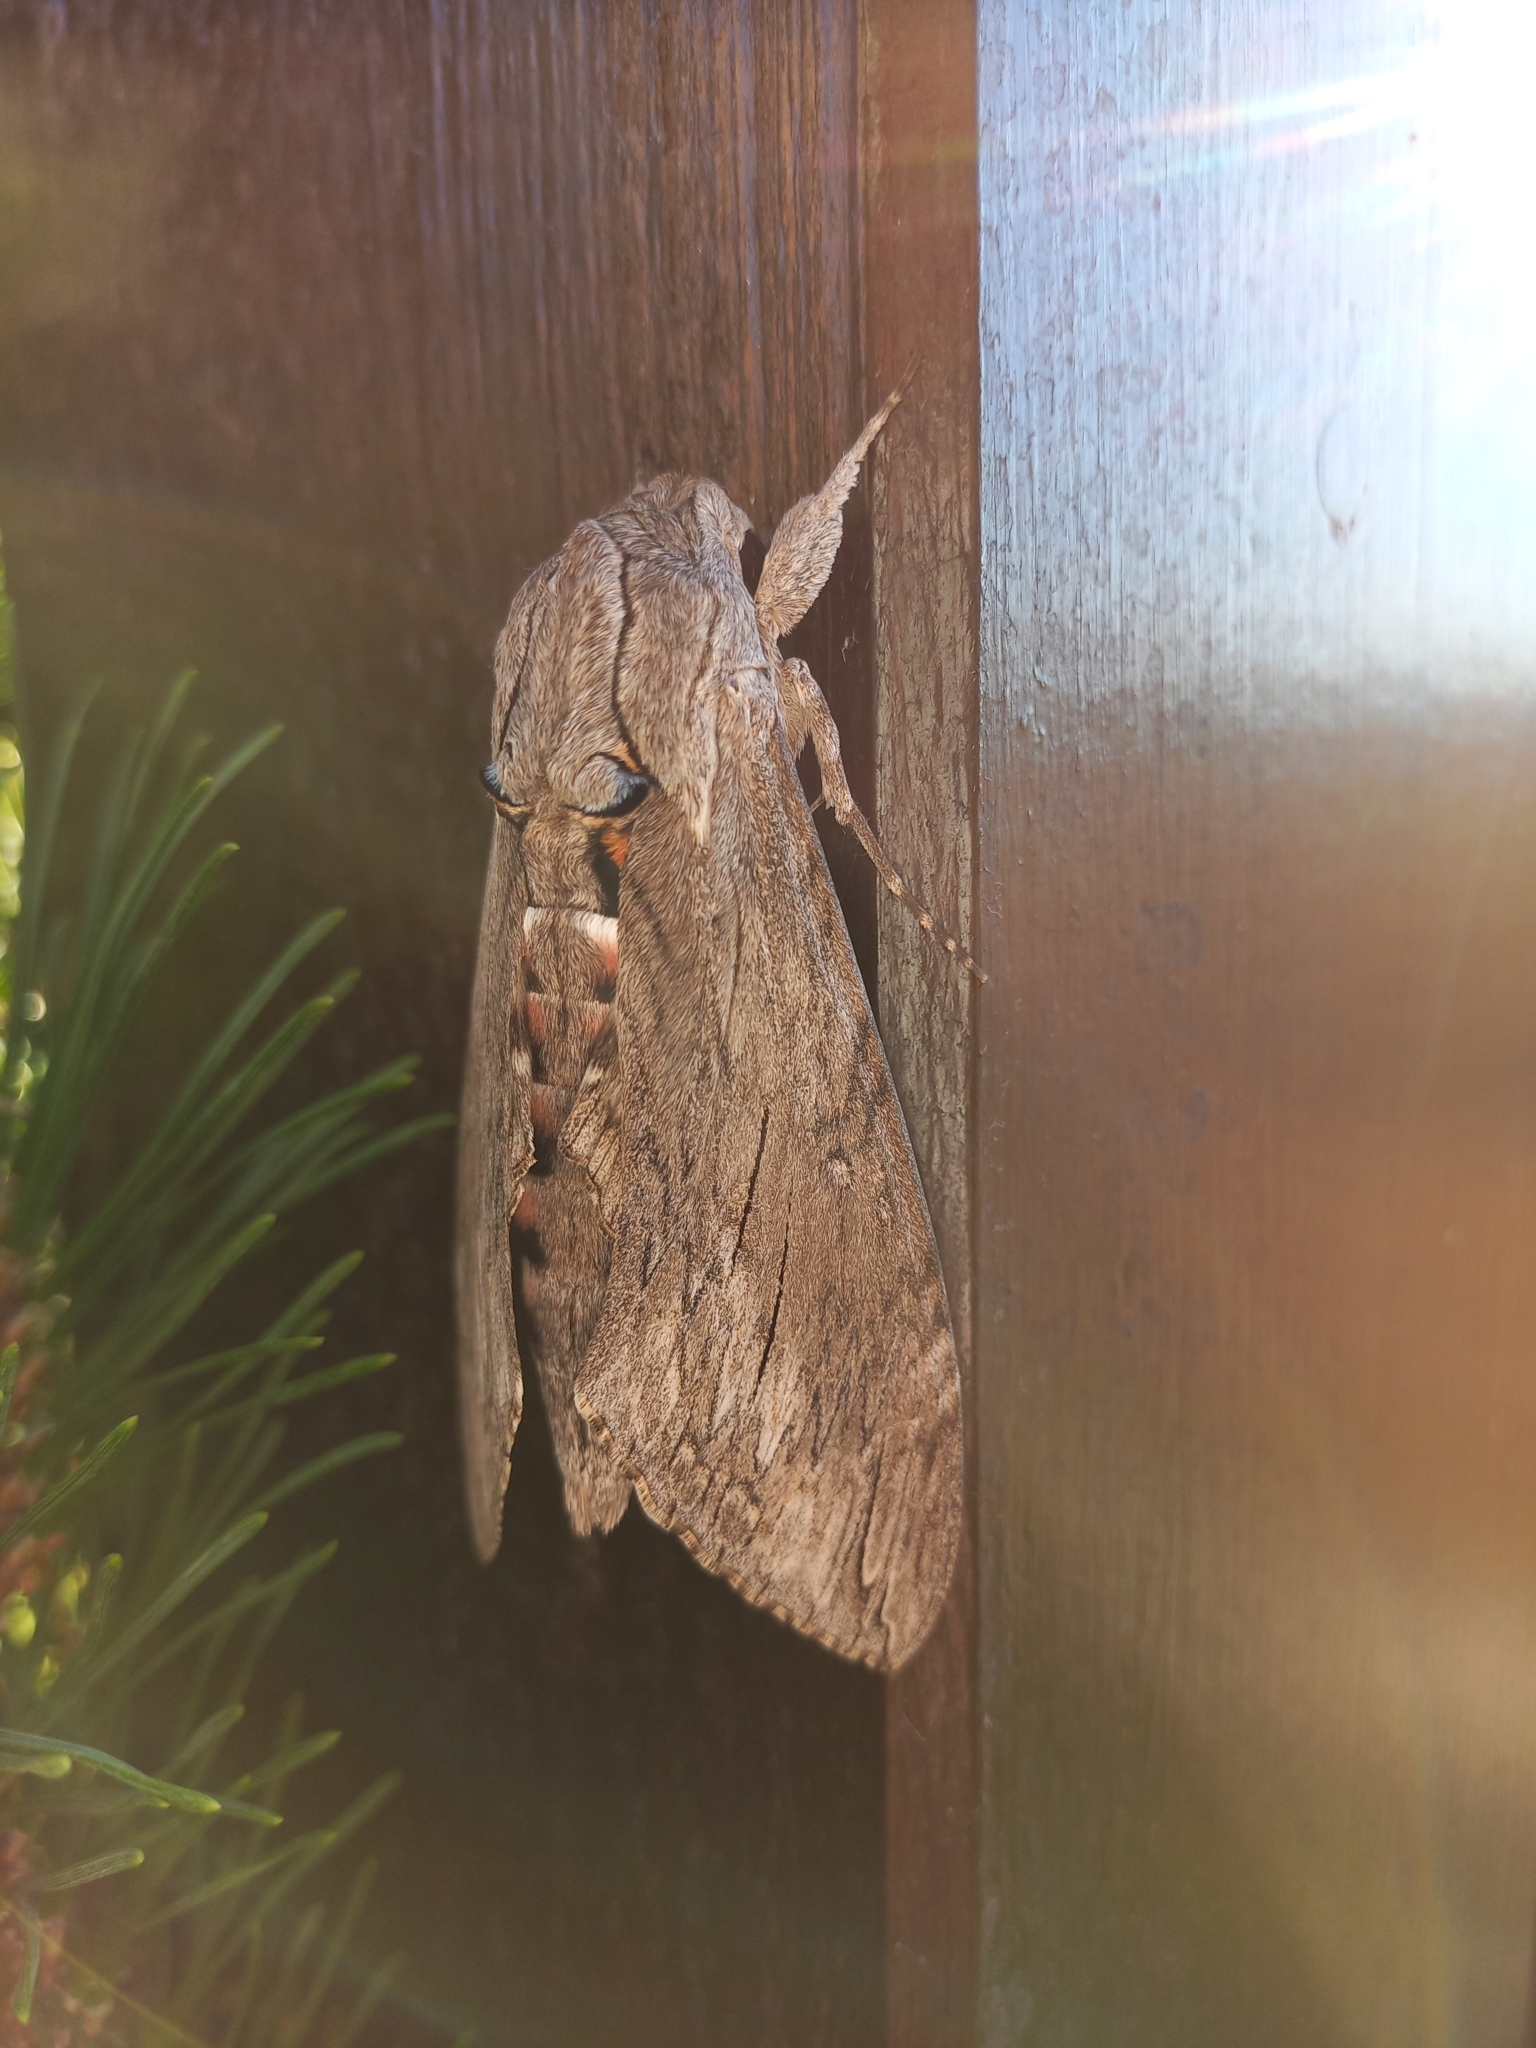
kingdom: Animalia
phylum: Arthropoda
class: Insecta
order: Lepidoptera
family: Sphingidae
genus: Agrius
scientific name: Agrius convolvuli
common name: Convolvulus hawkmoth
